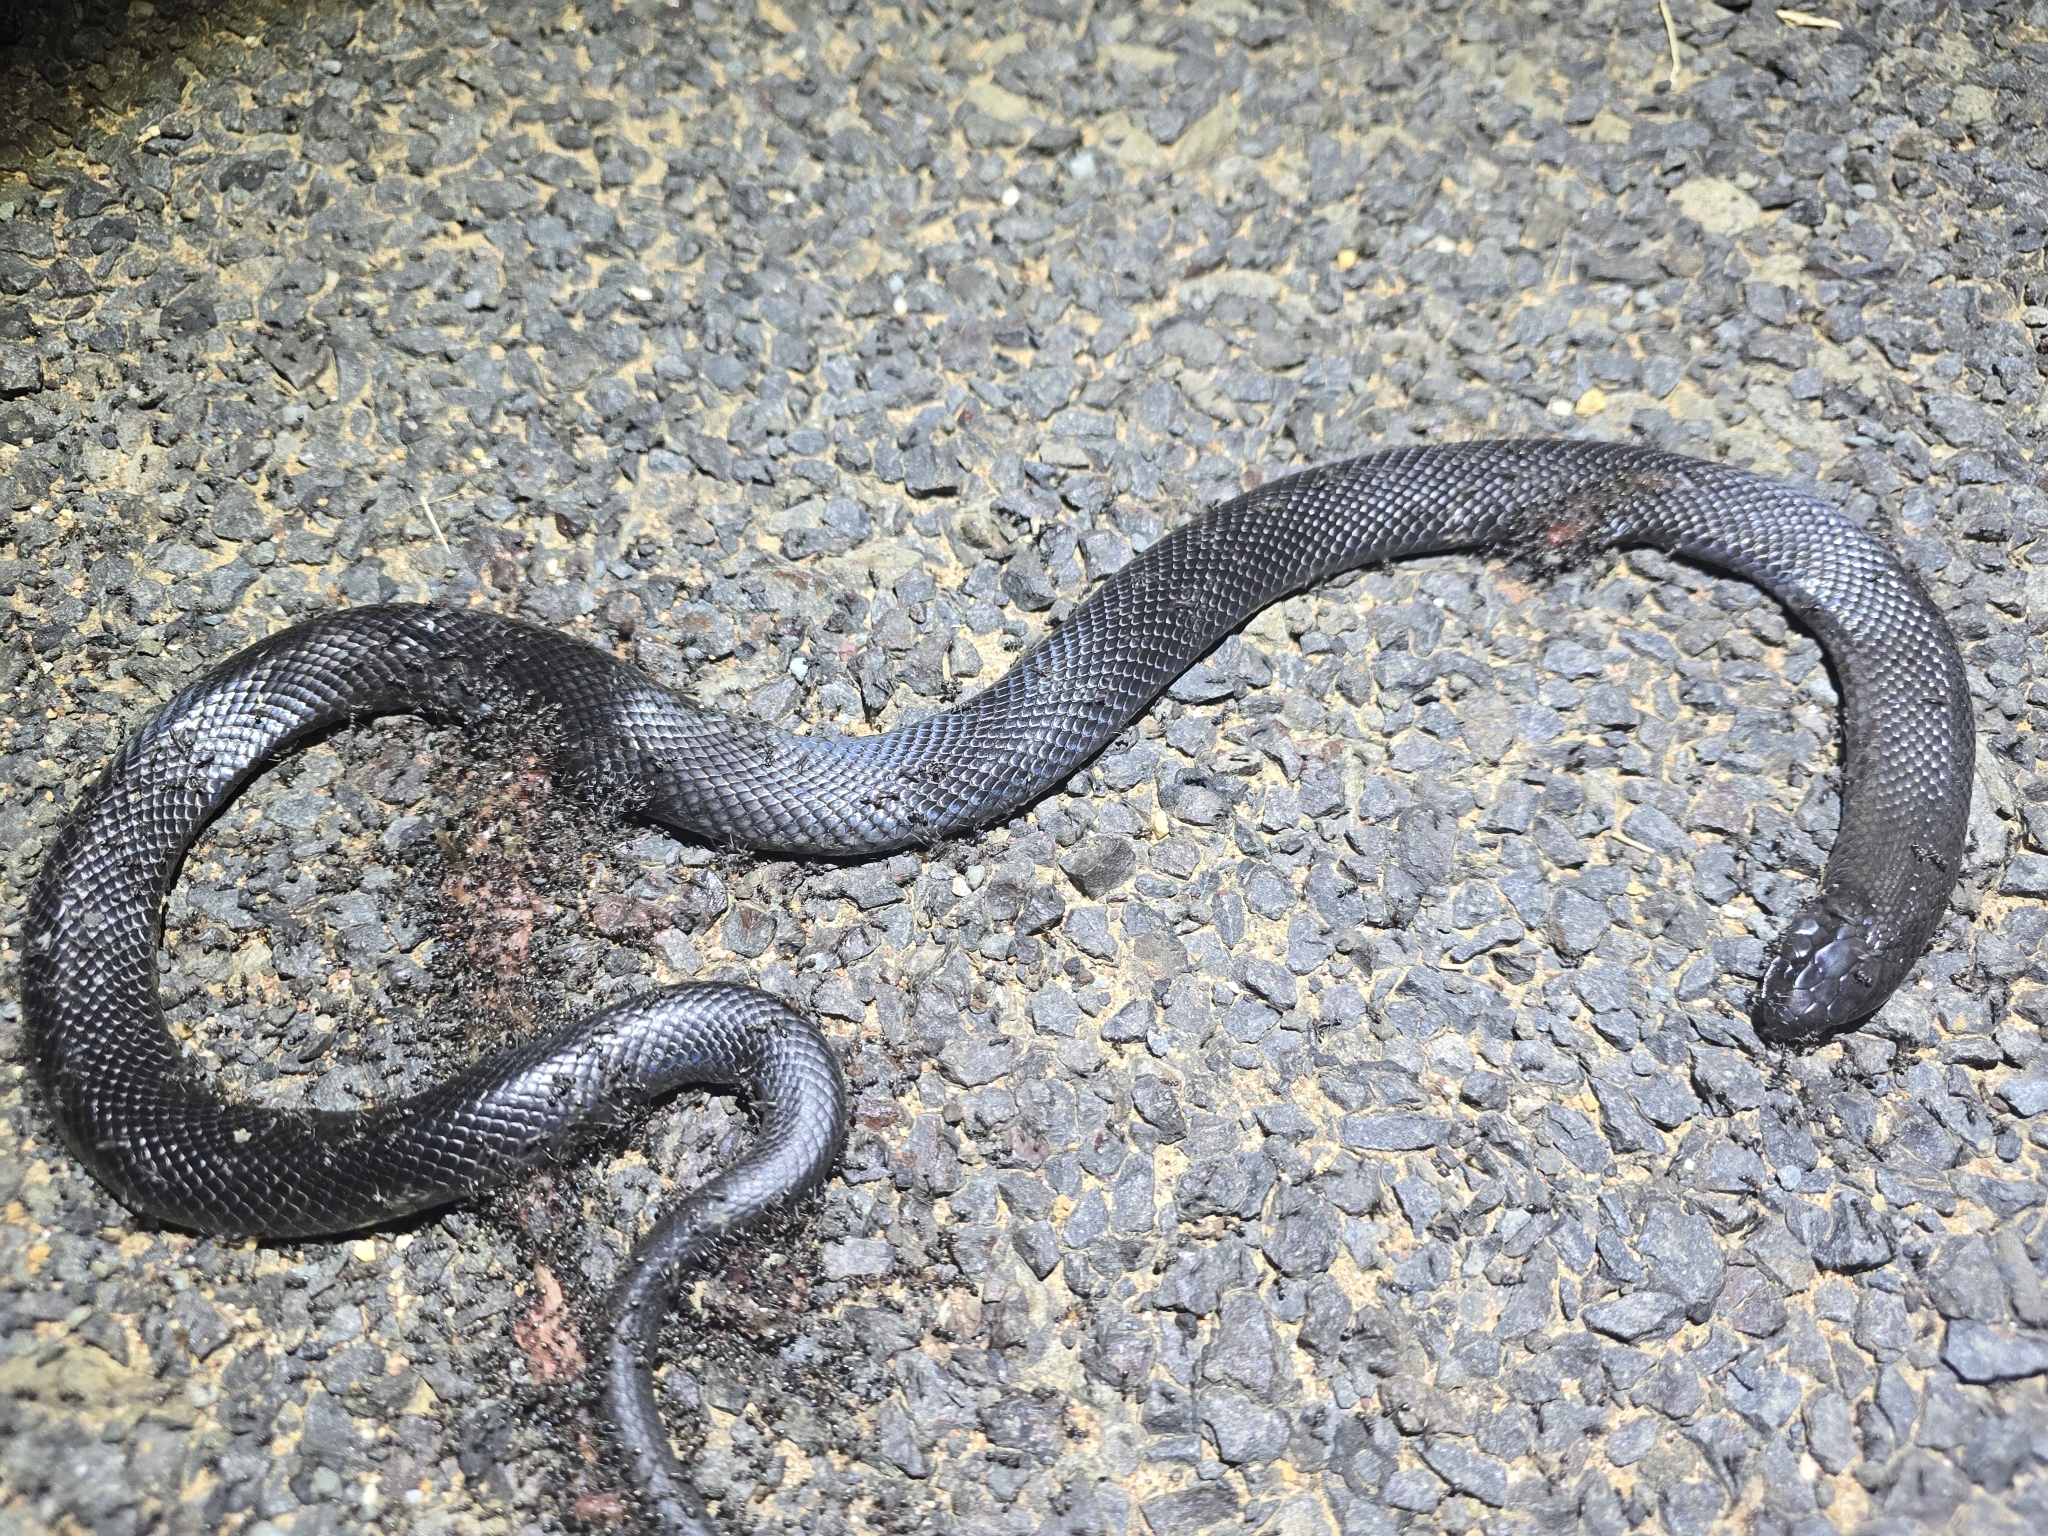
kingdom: Animalia
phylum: Chordata
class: Squamata
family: Elapidae
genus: Pseudechis
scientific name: Pseudechis guttatus
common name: Blue-bellied black snake
